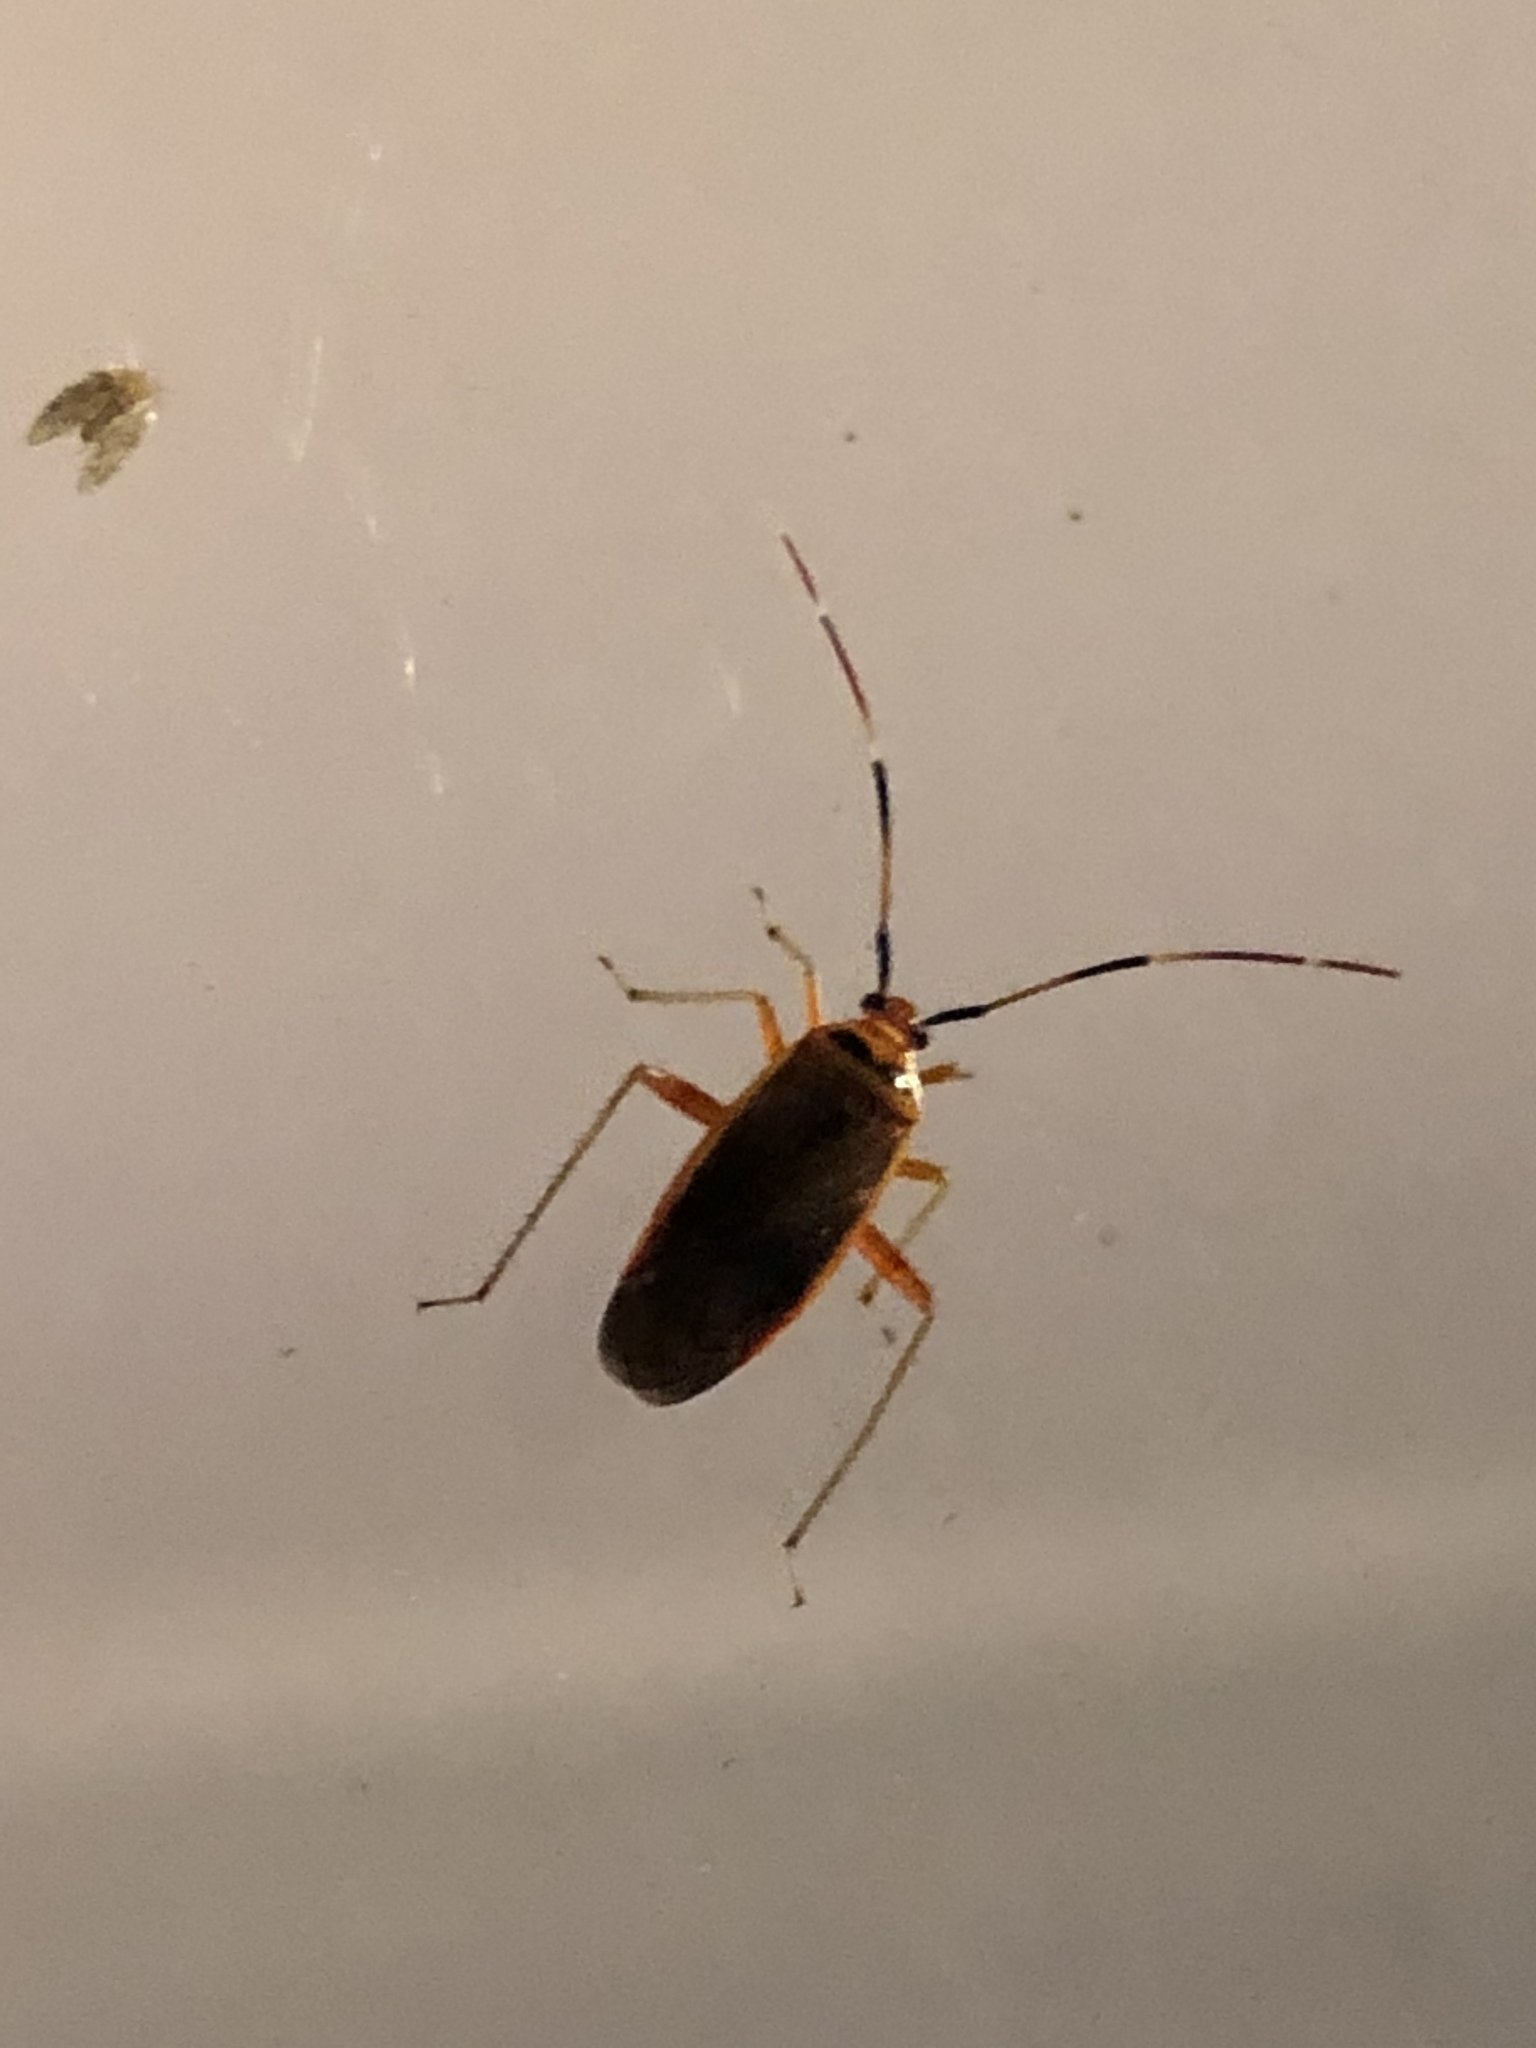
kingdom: Animalia
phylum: Arthropoda
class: Insecta
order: Hemiptera
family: Miridae
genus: Adelphocoris
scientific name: Adelphocoris rapidus
